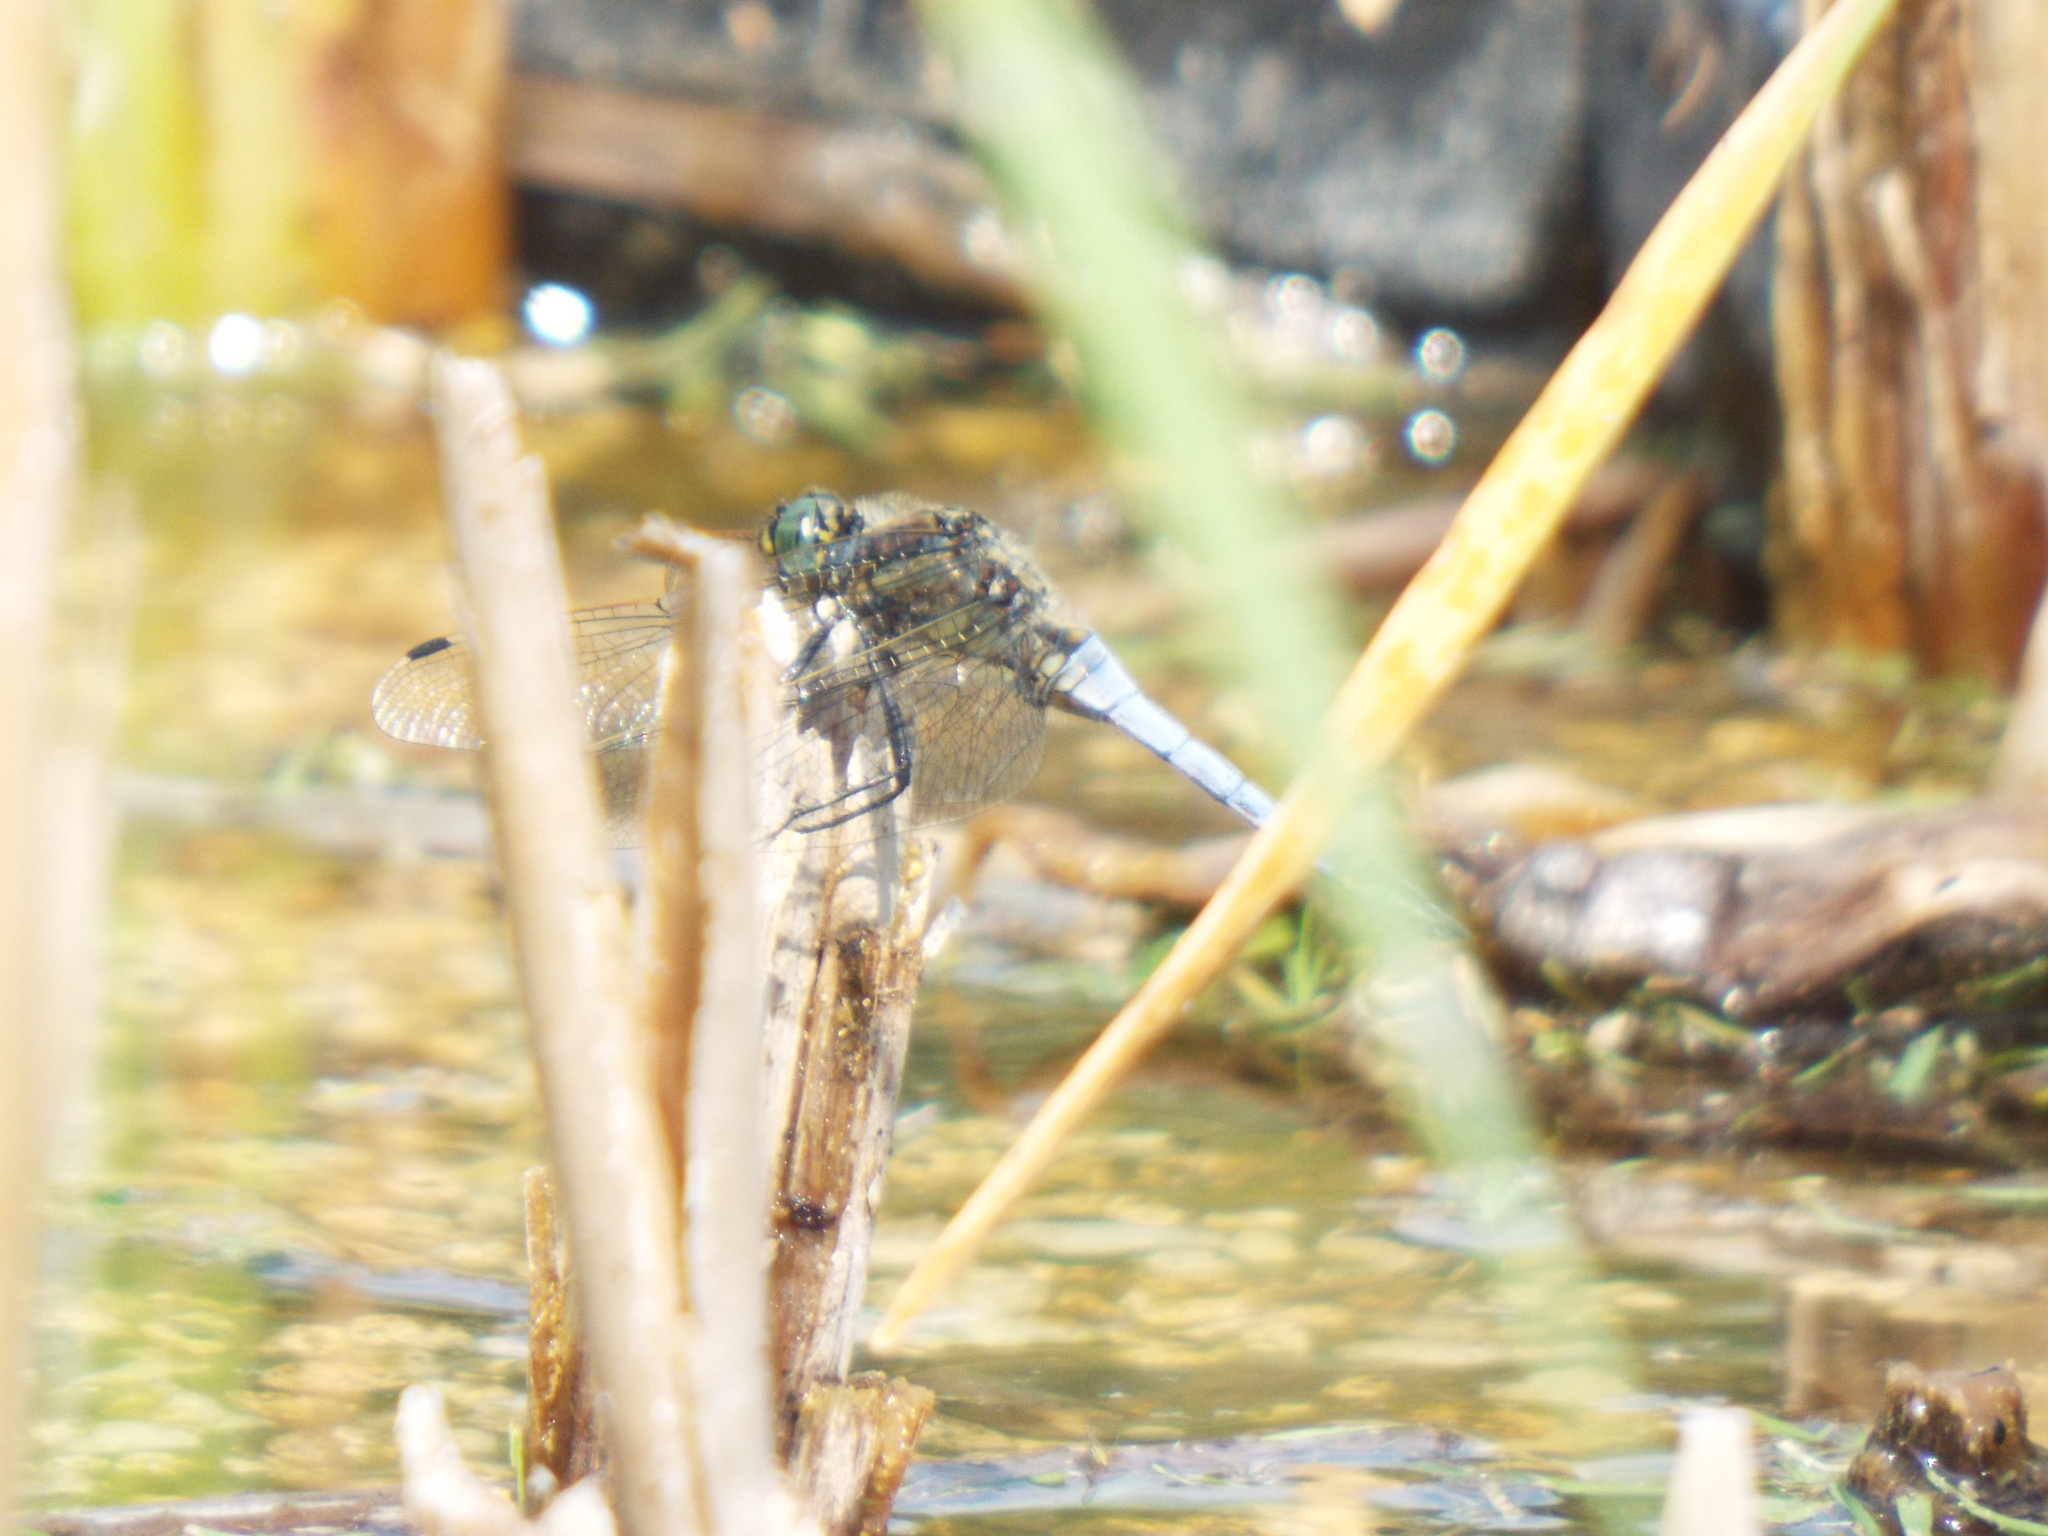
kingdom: Animalia
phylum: Arthropoda
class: Insecta
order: Odonata
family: Libellulidae
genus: Orthetrum
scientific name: Orthetrum cancellatum
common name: Black-tailed skimmer
